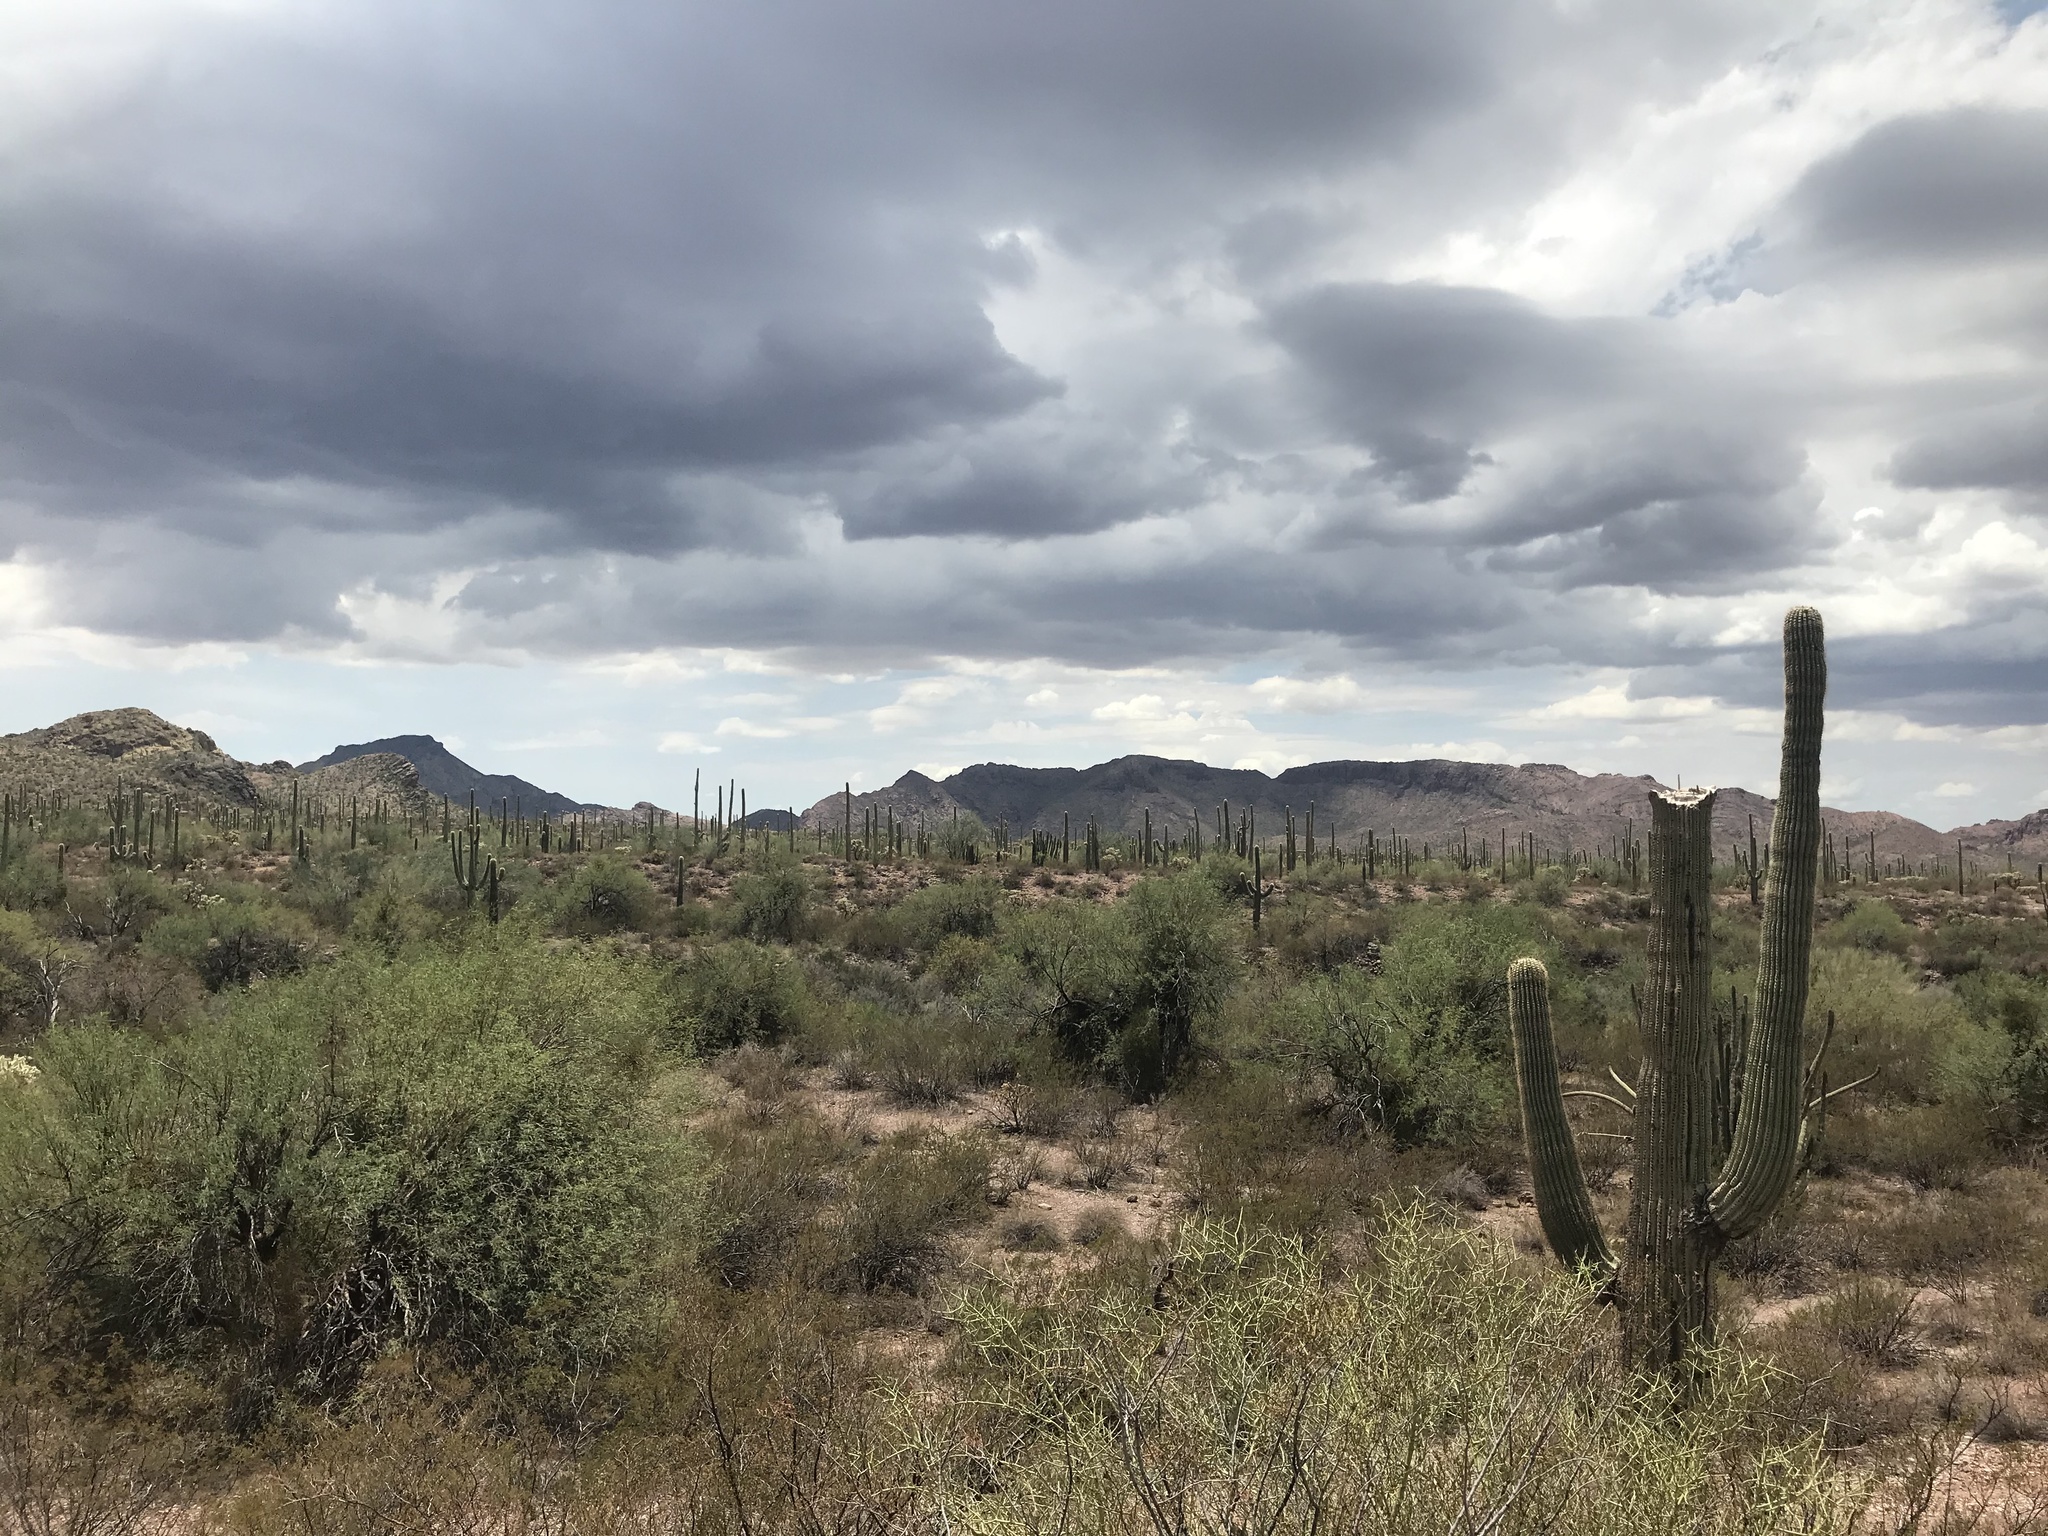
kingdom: Plantae
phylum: Tracheophyta
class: Magnoliopsida
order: Caryophyllales
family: Cactaceae
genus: Carnegiea
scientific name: Carnegiea gigantea
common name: Saguaro
